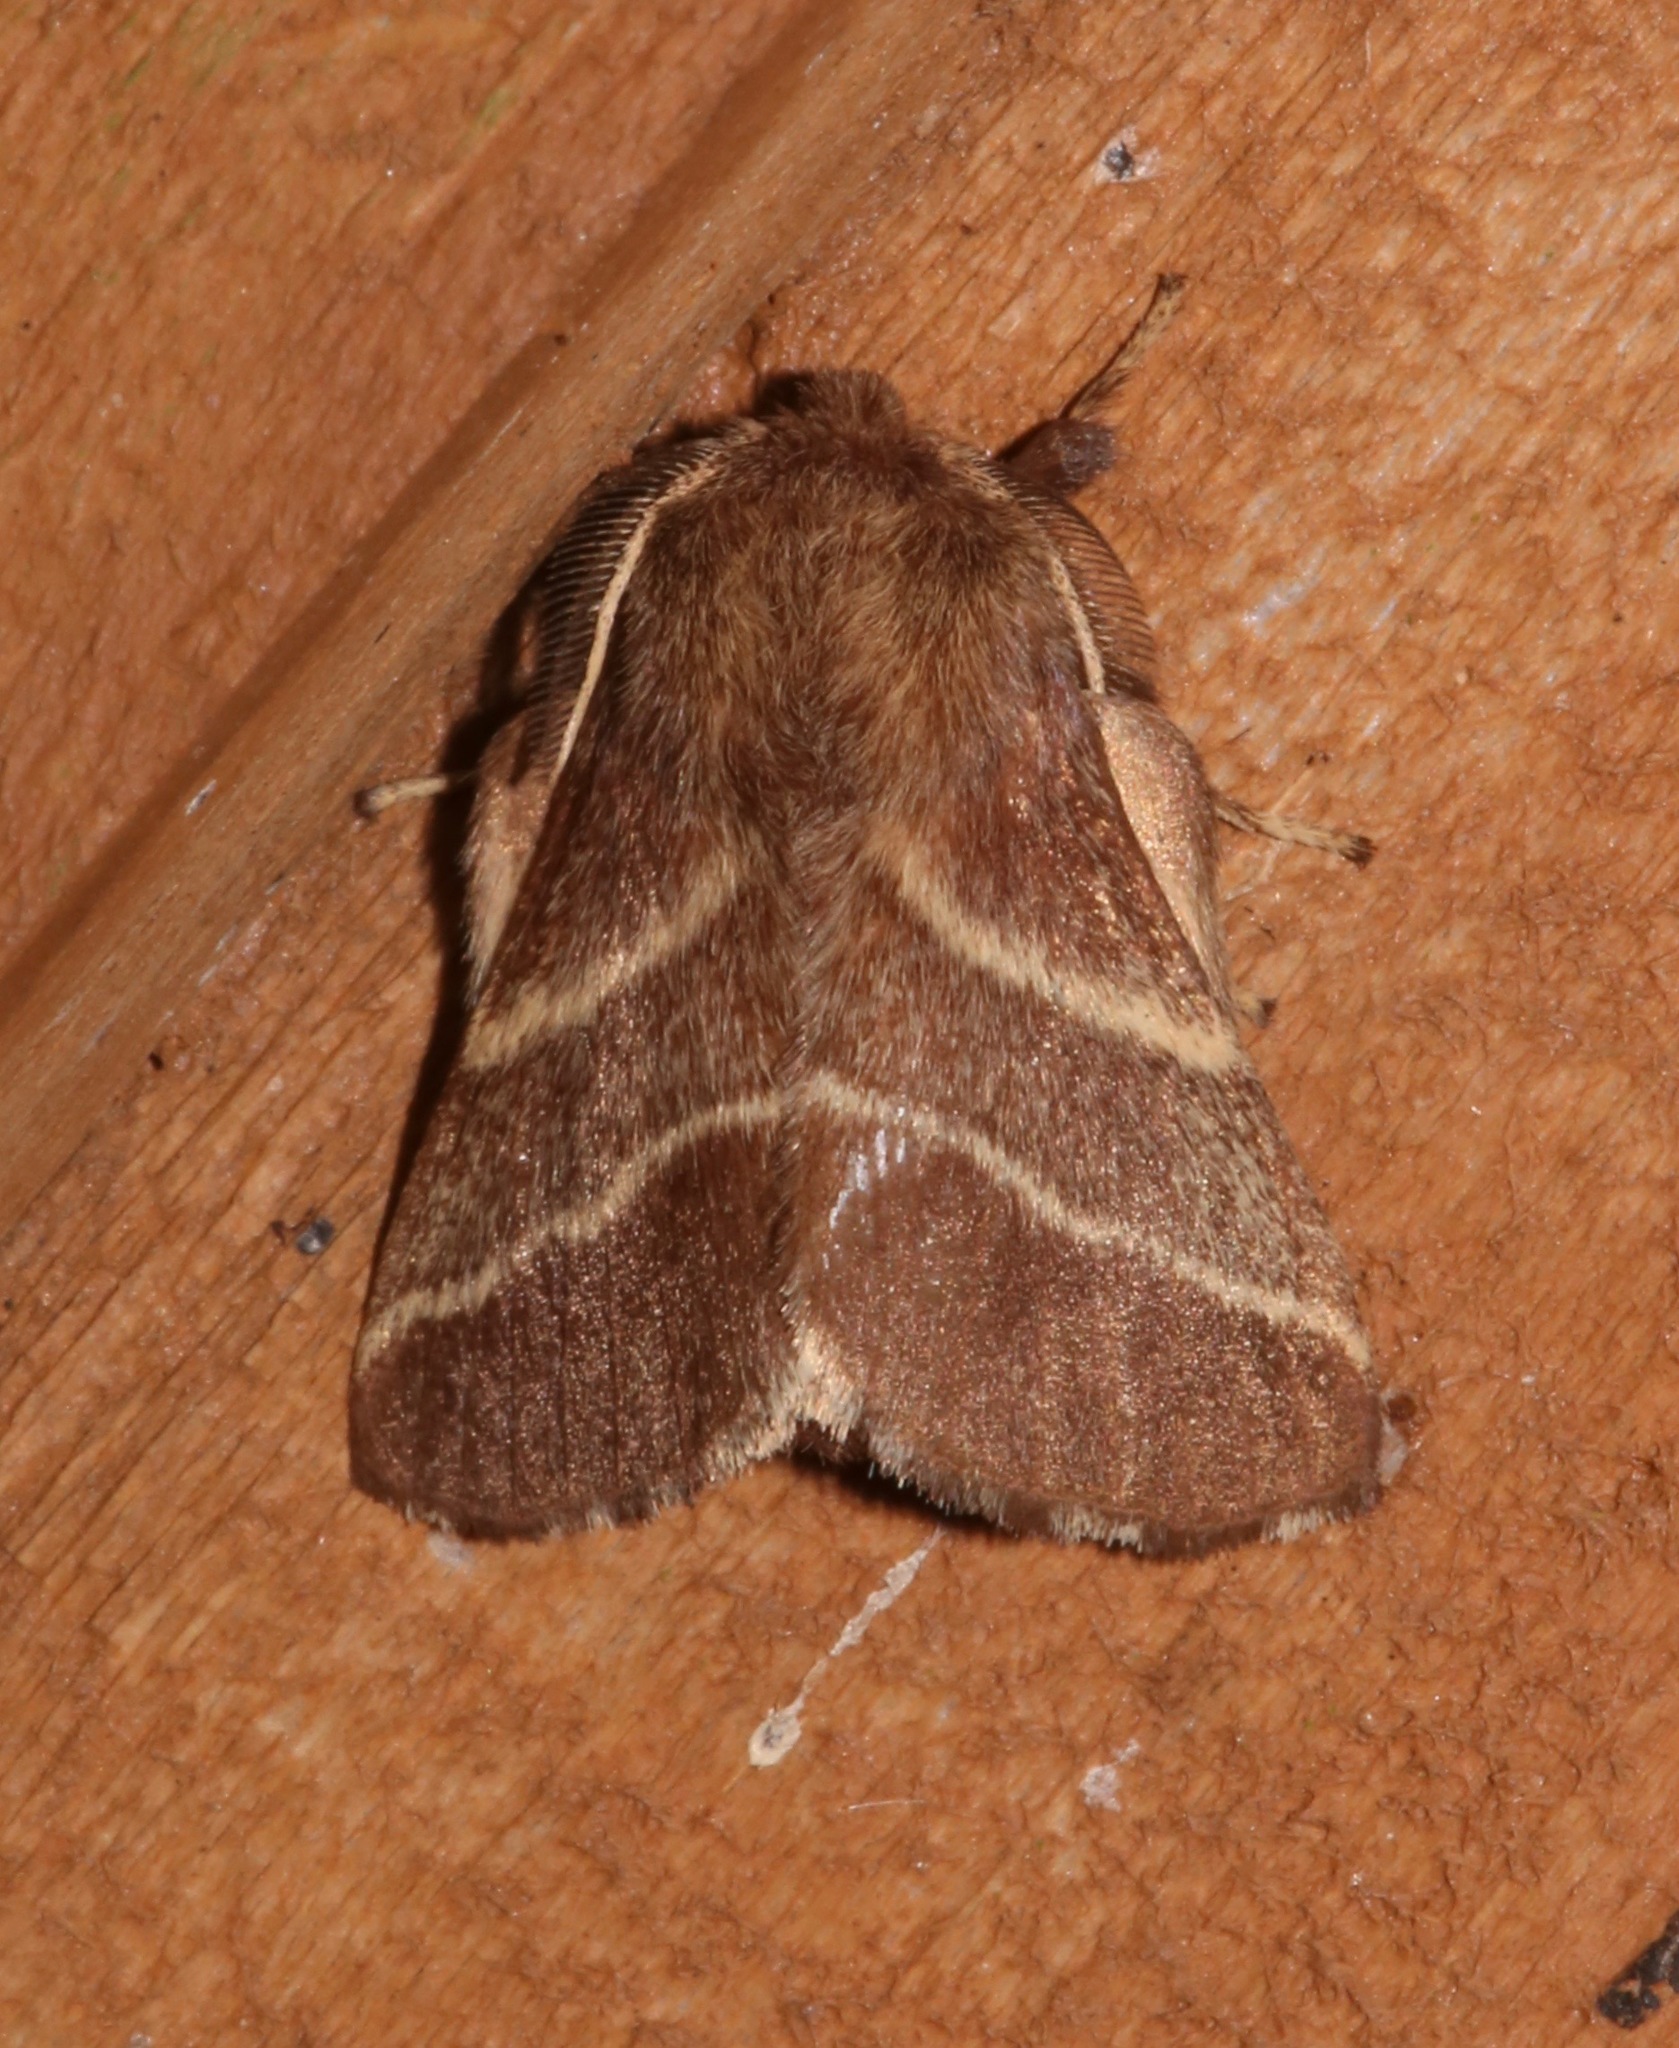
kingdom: Animalia
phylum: Arthropoda
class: Insecta
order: Lepidoptera
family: Lasiocampidae
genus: Malacosoma
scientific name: Malacosoma americana
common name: Eastern tent caterpillar moth
